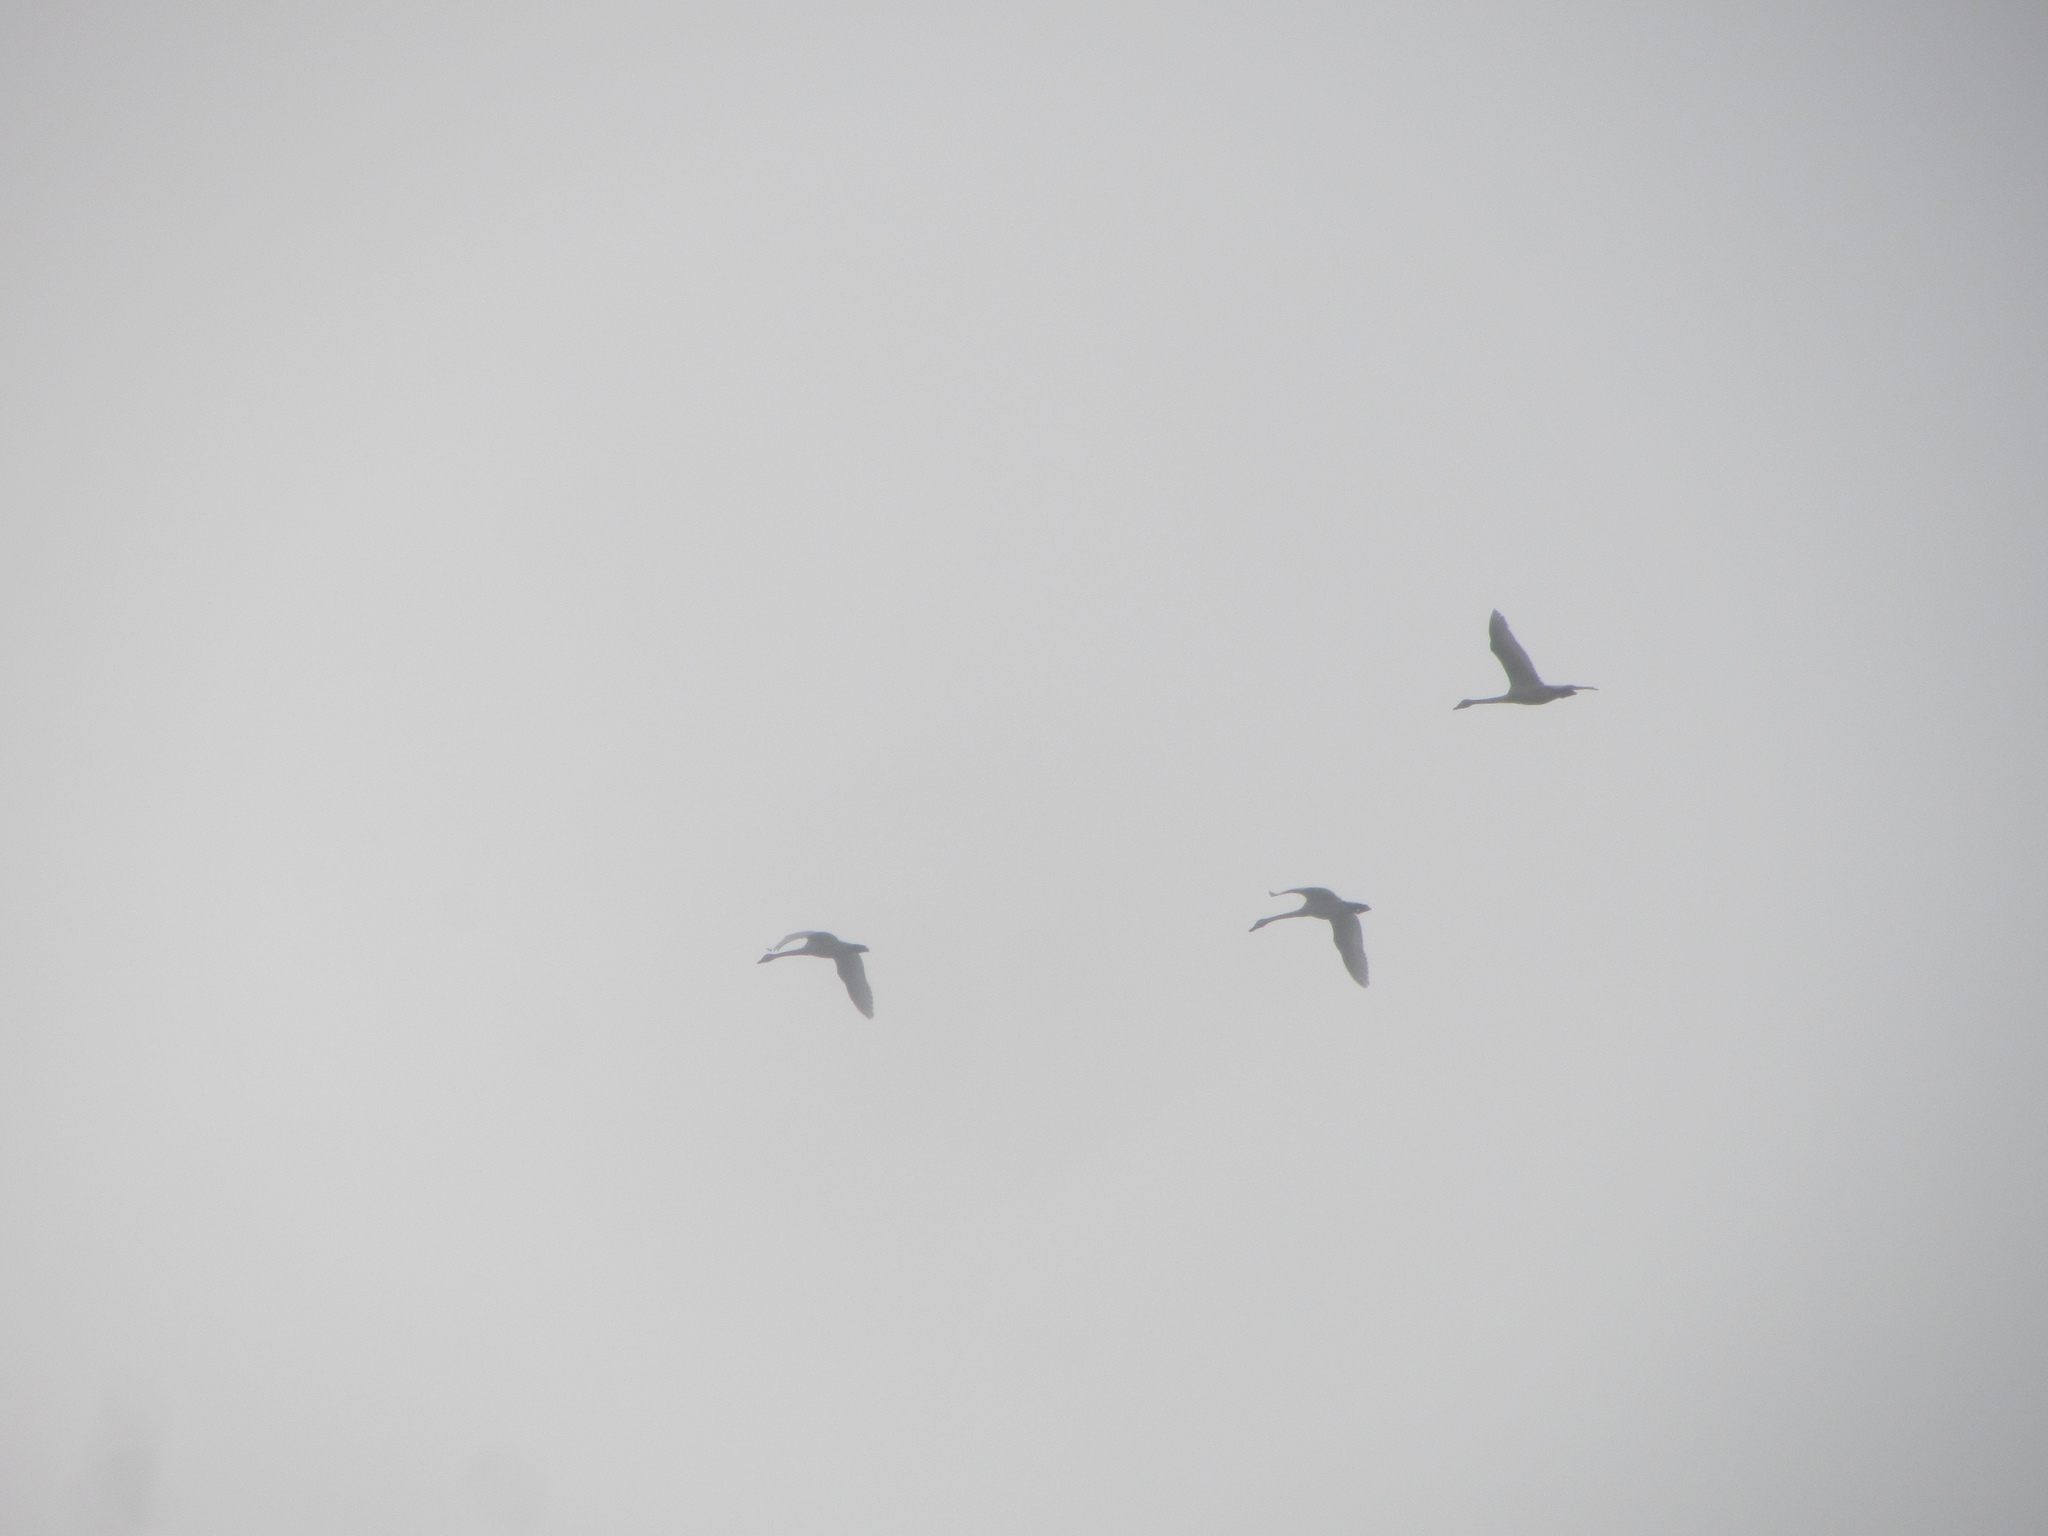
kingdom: Animalia
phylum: Chordata
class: Aves
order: Anseriformes
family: Anatidae
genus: Cygnus
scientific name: Cygnus columbianus
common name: Tundra swan
